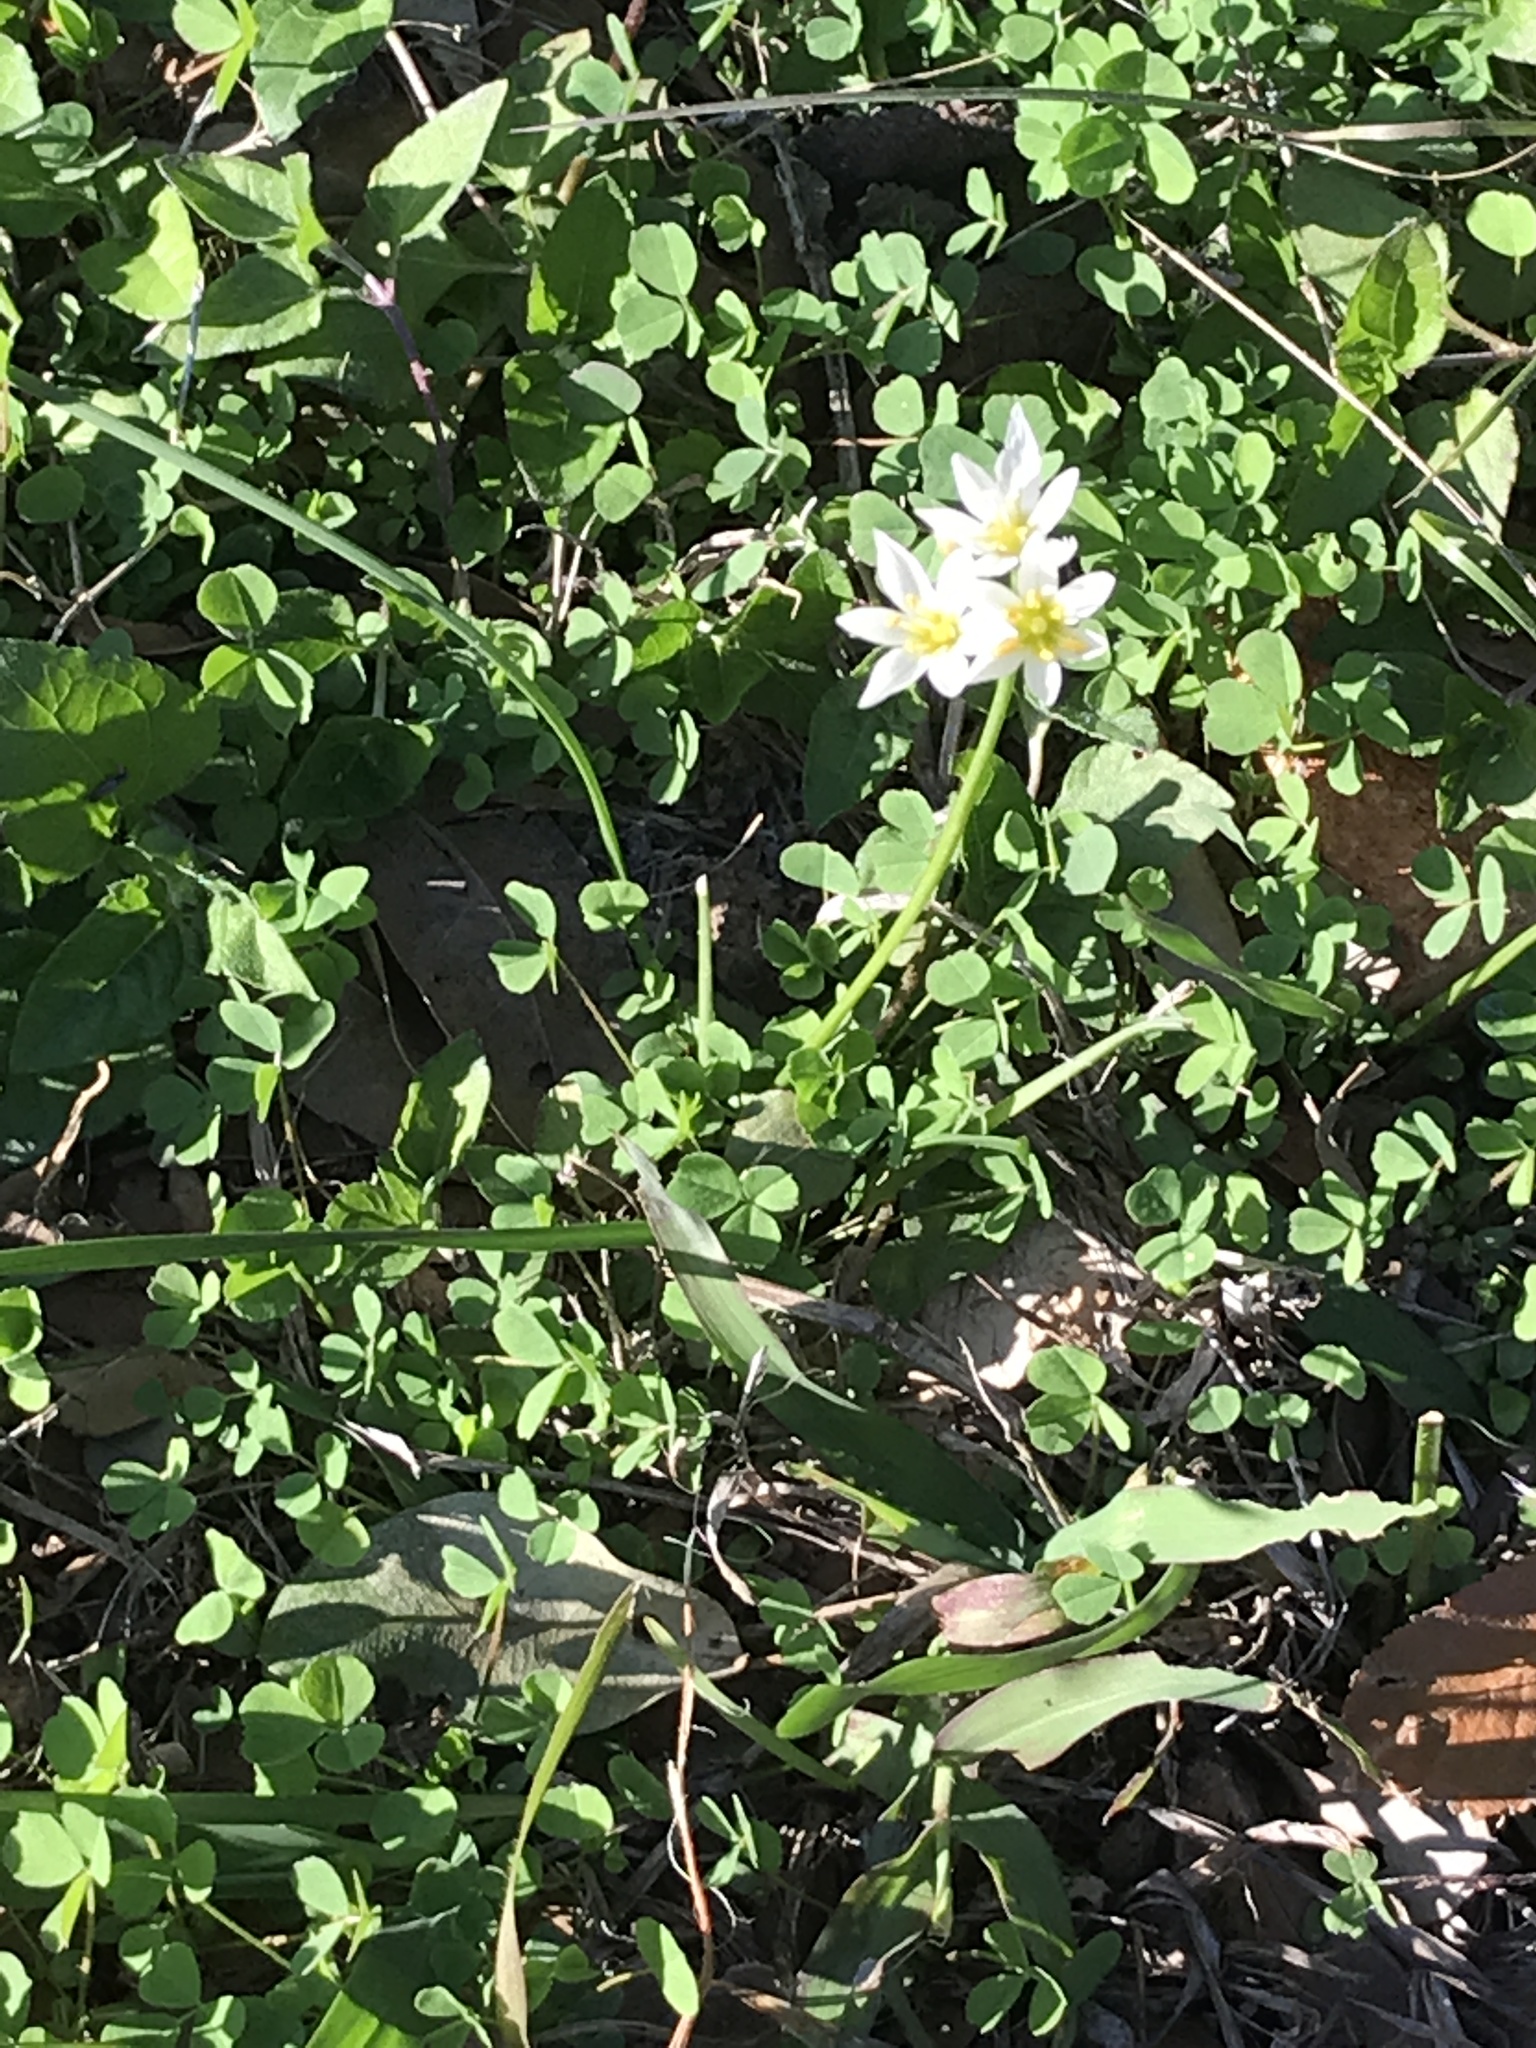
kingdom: Plantae
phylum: Tracheophyta
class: Liliopsida
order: Asparagales
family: Amaryllidaceae
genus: Nothoscordum
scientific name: Nothoscordum bivalve
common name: Crow-poison
